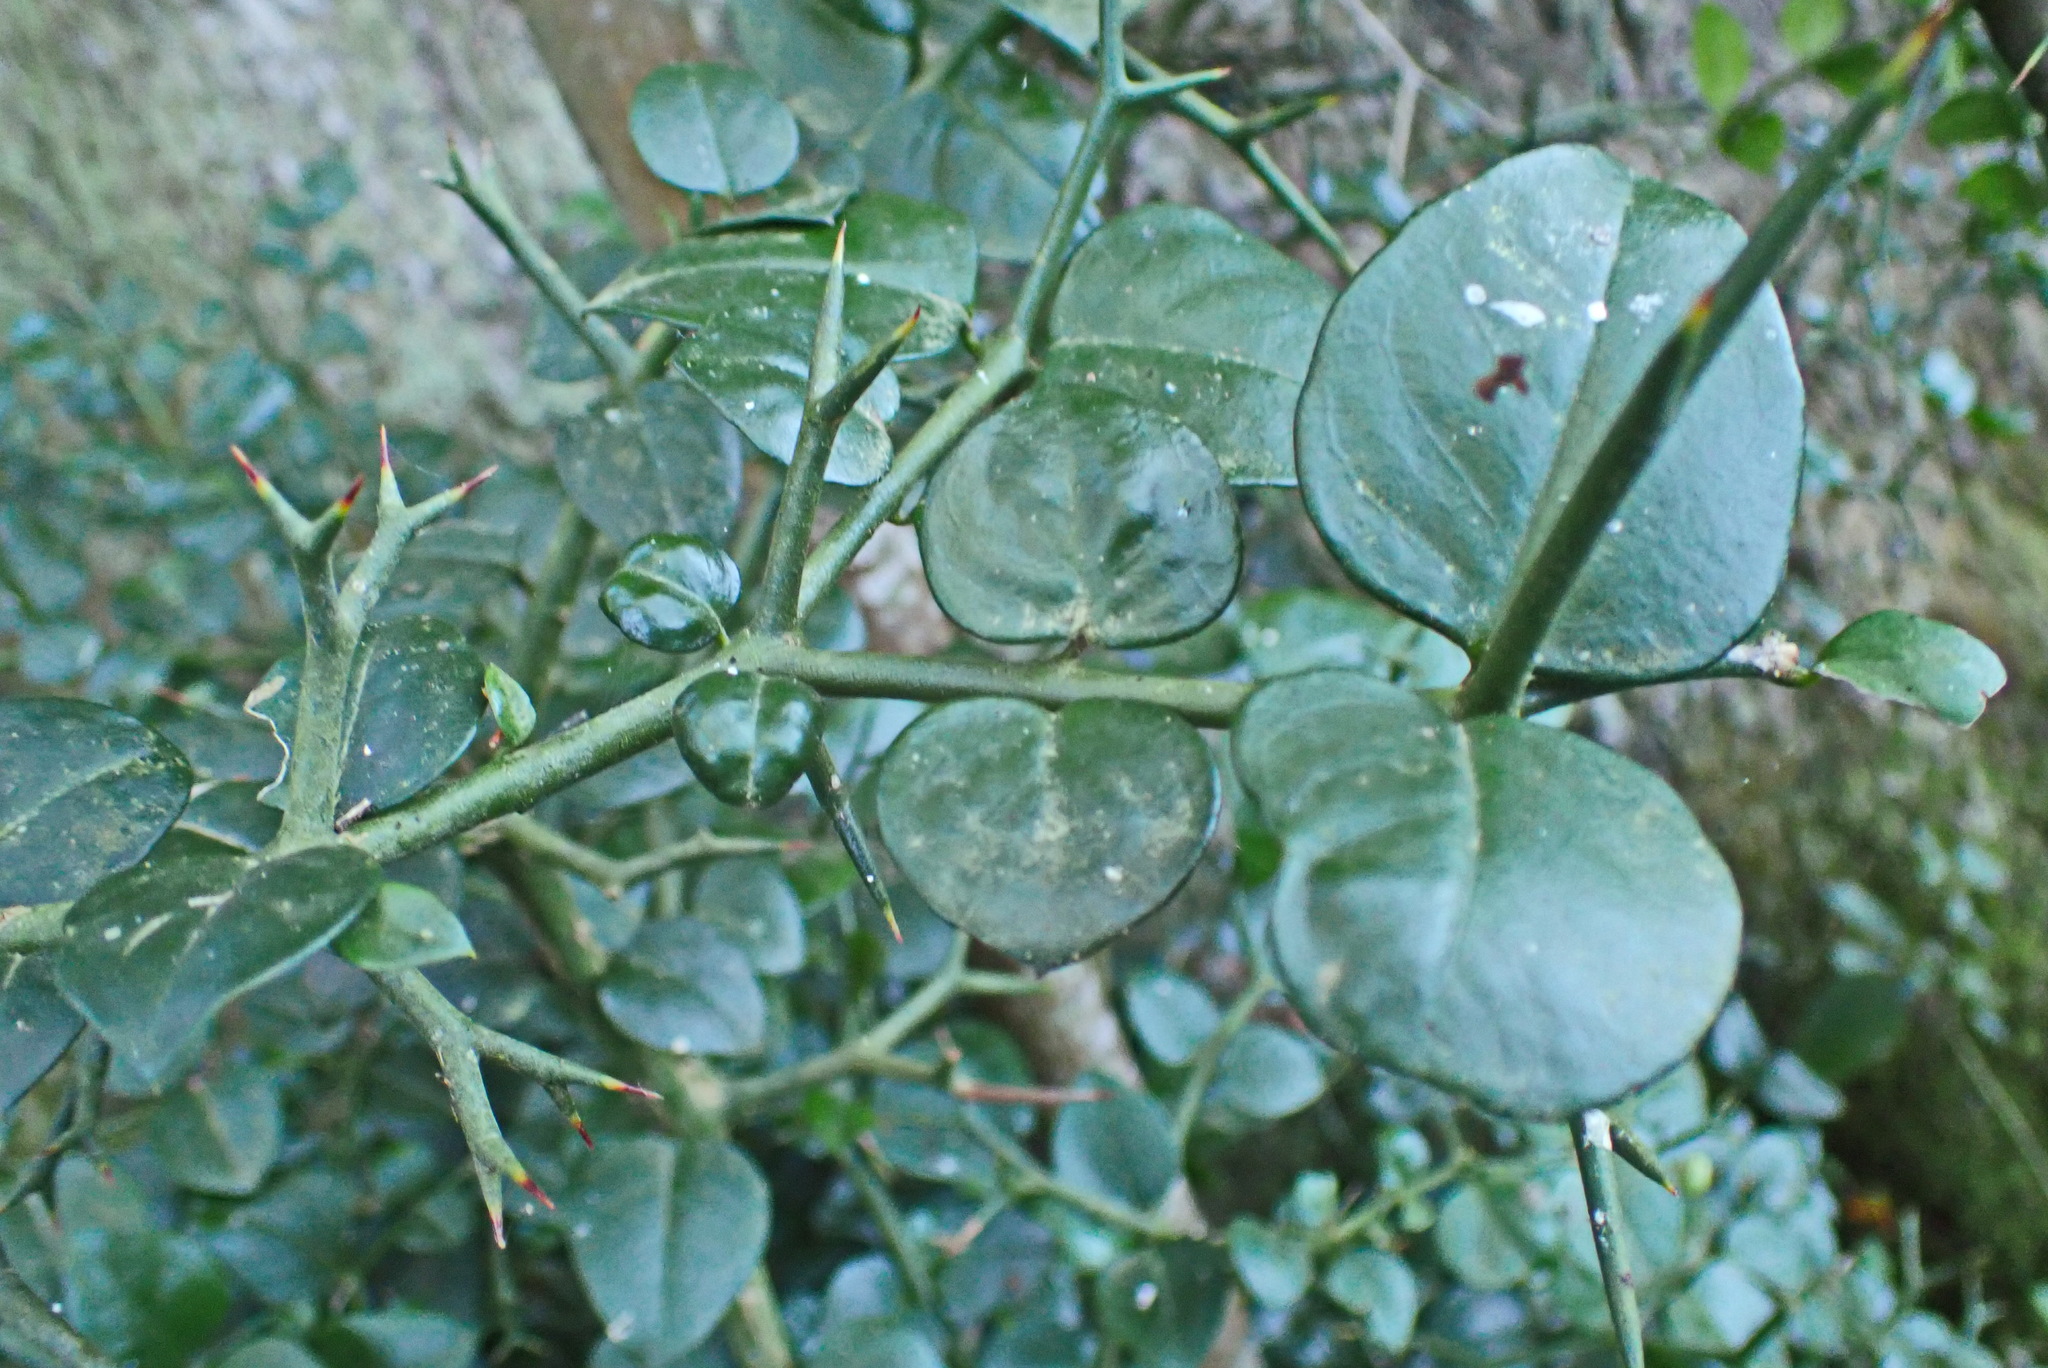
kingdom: Plantae
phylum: Tracheophyta
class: Magnoliopsida
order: Gentianales
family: Apocynaceae
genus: Carissa
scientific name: Carissa bispinosa
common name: Forest num-num
